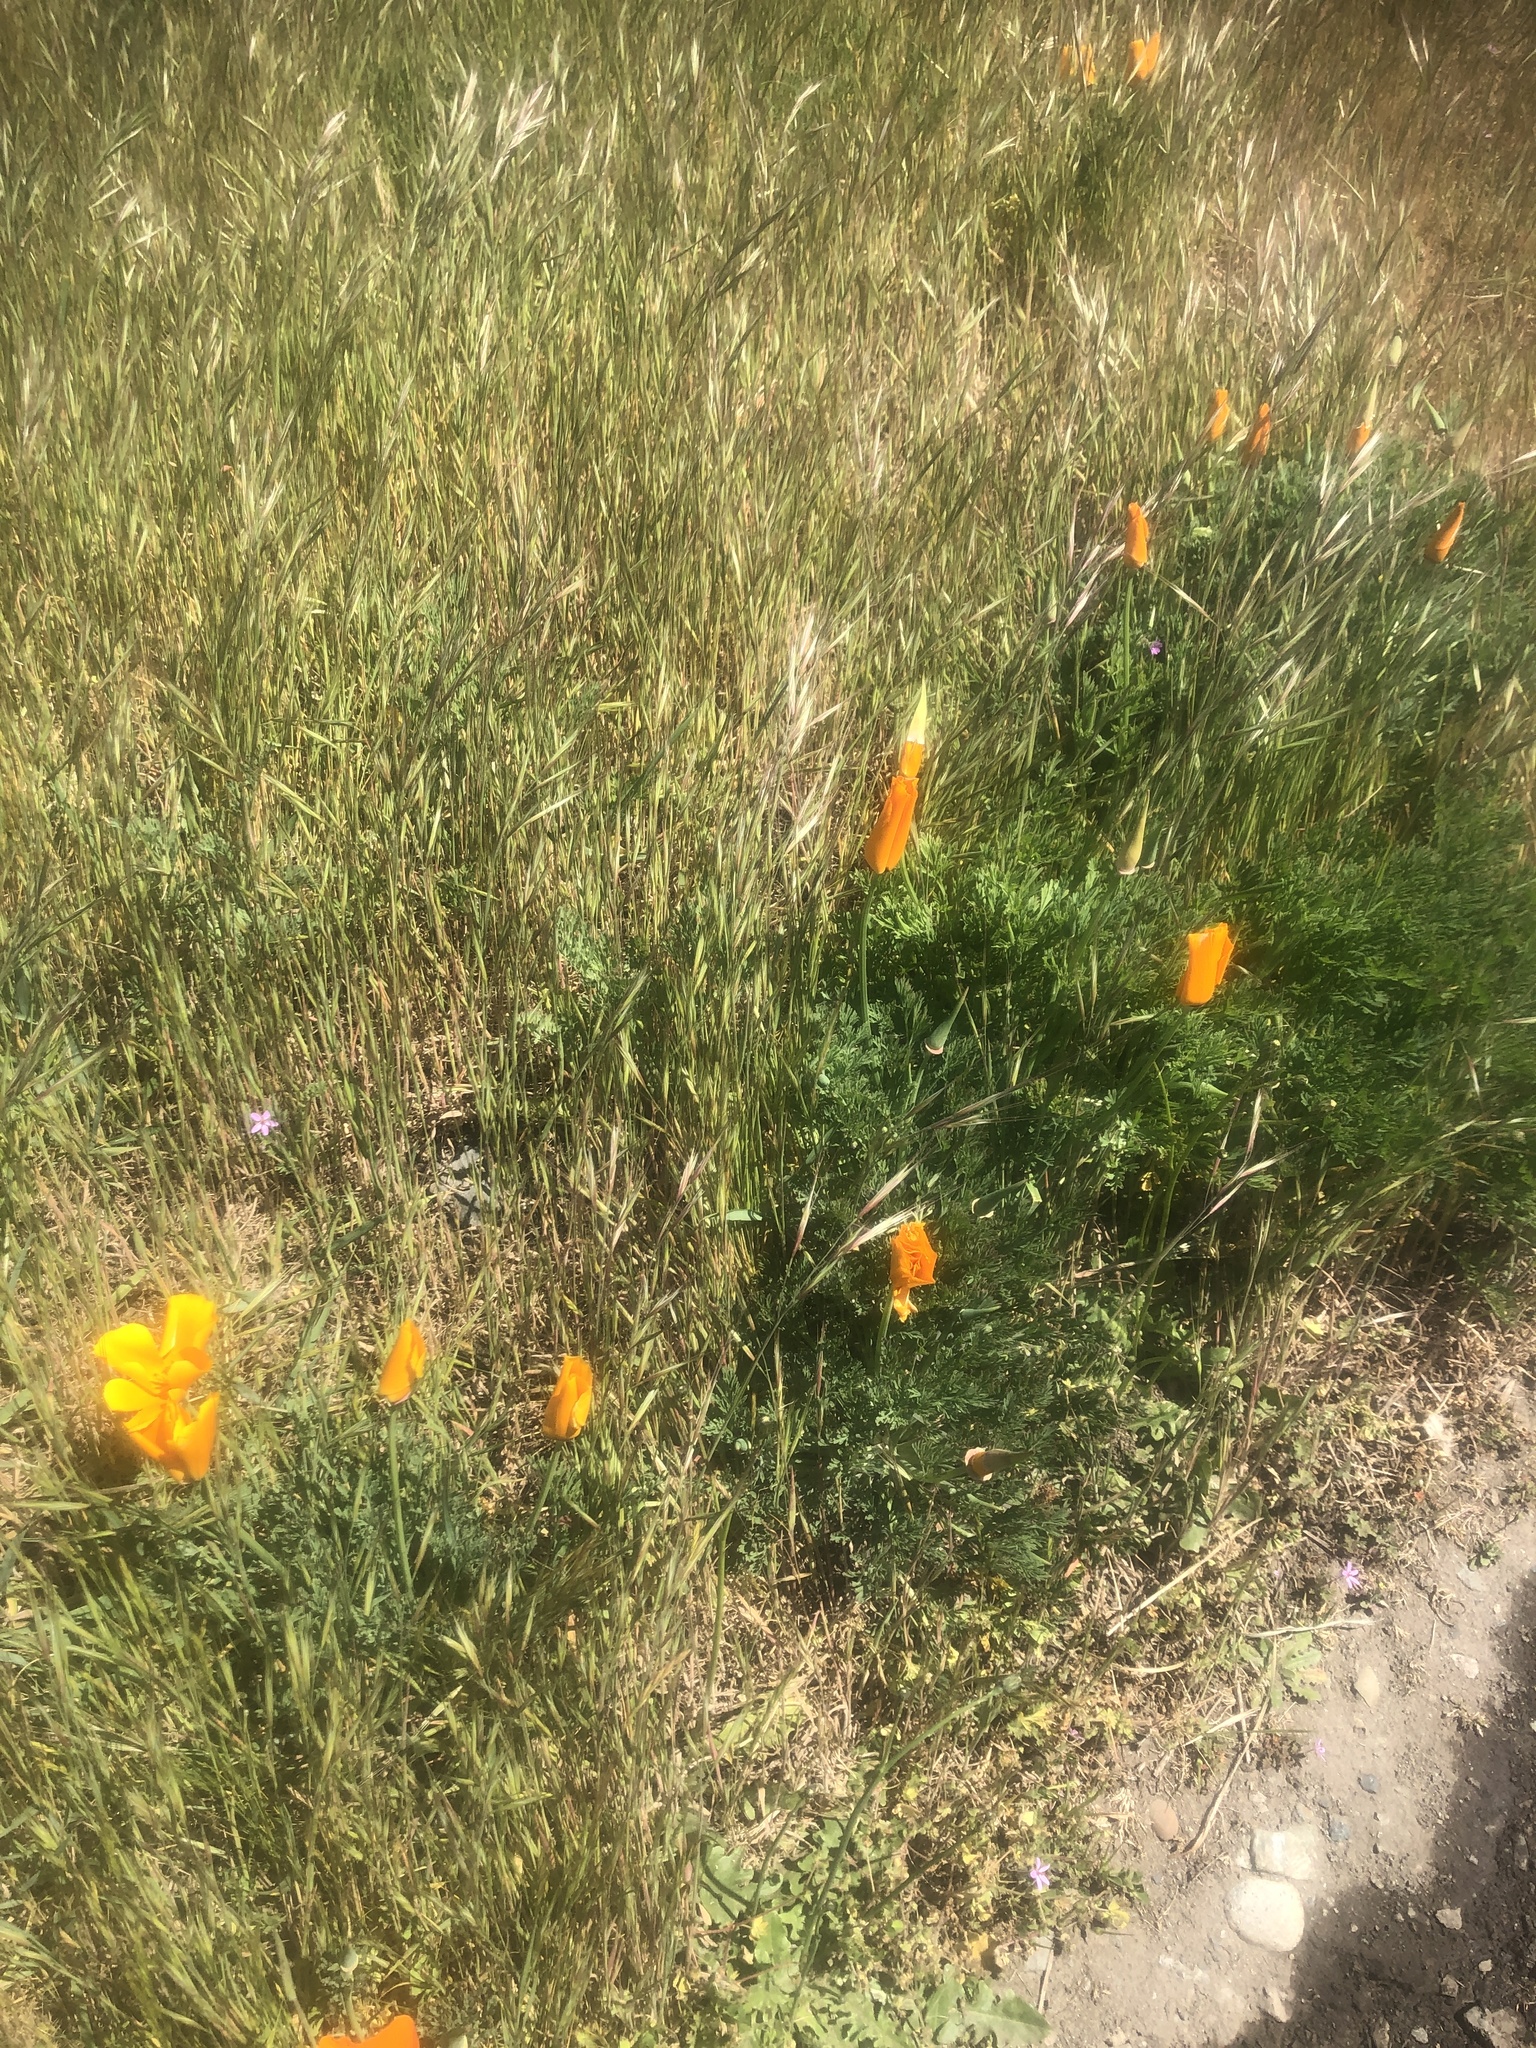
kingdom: Plantae
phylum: Tracheophyta
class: Magnoliopsida
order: Ranunculales
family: Papaveraceae
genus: Eschscholzia
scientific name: Eschscholzia californica
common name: California poppy
